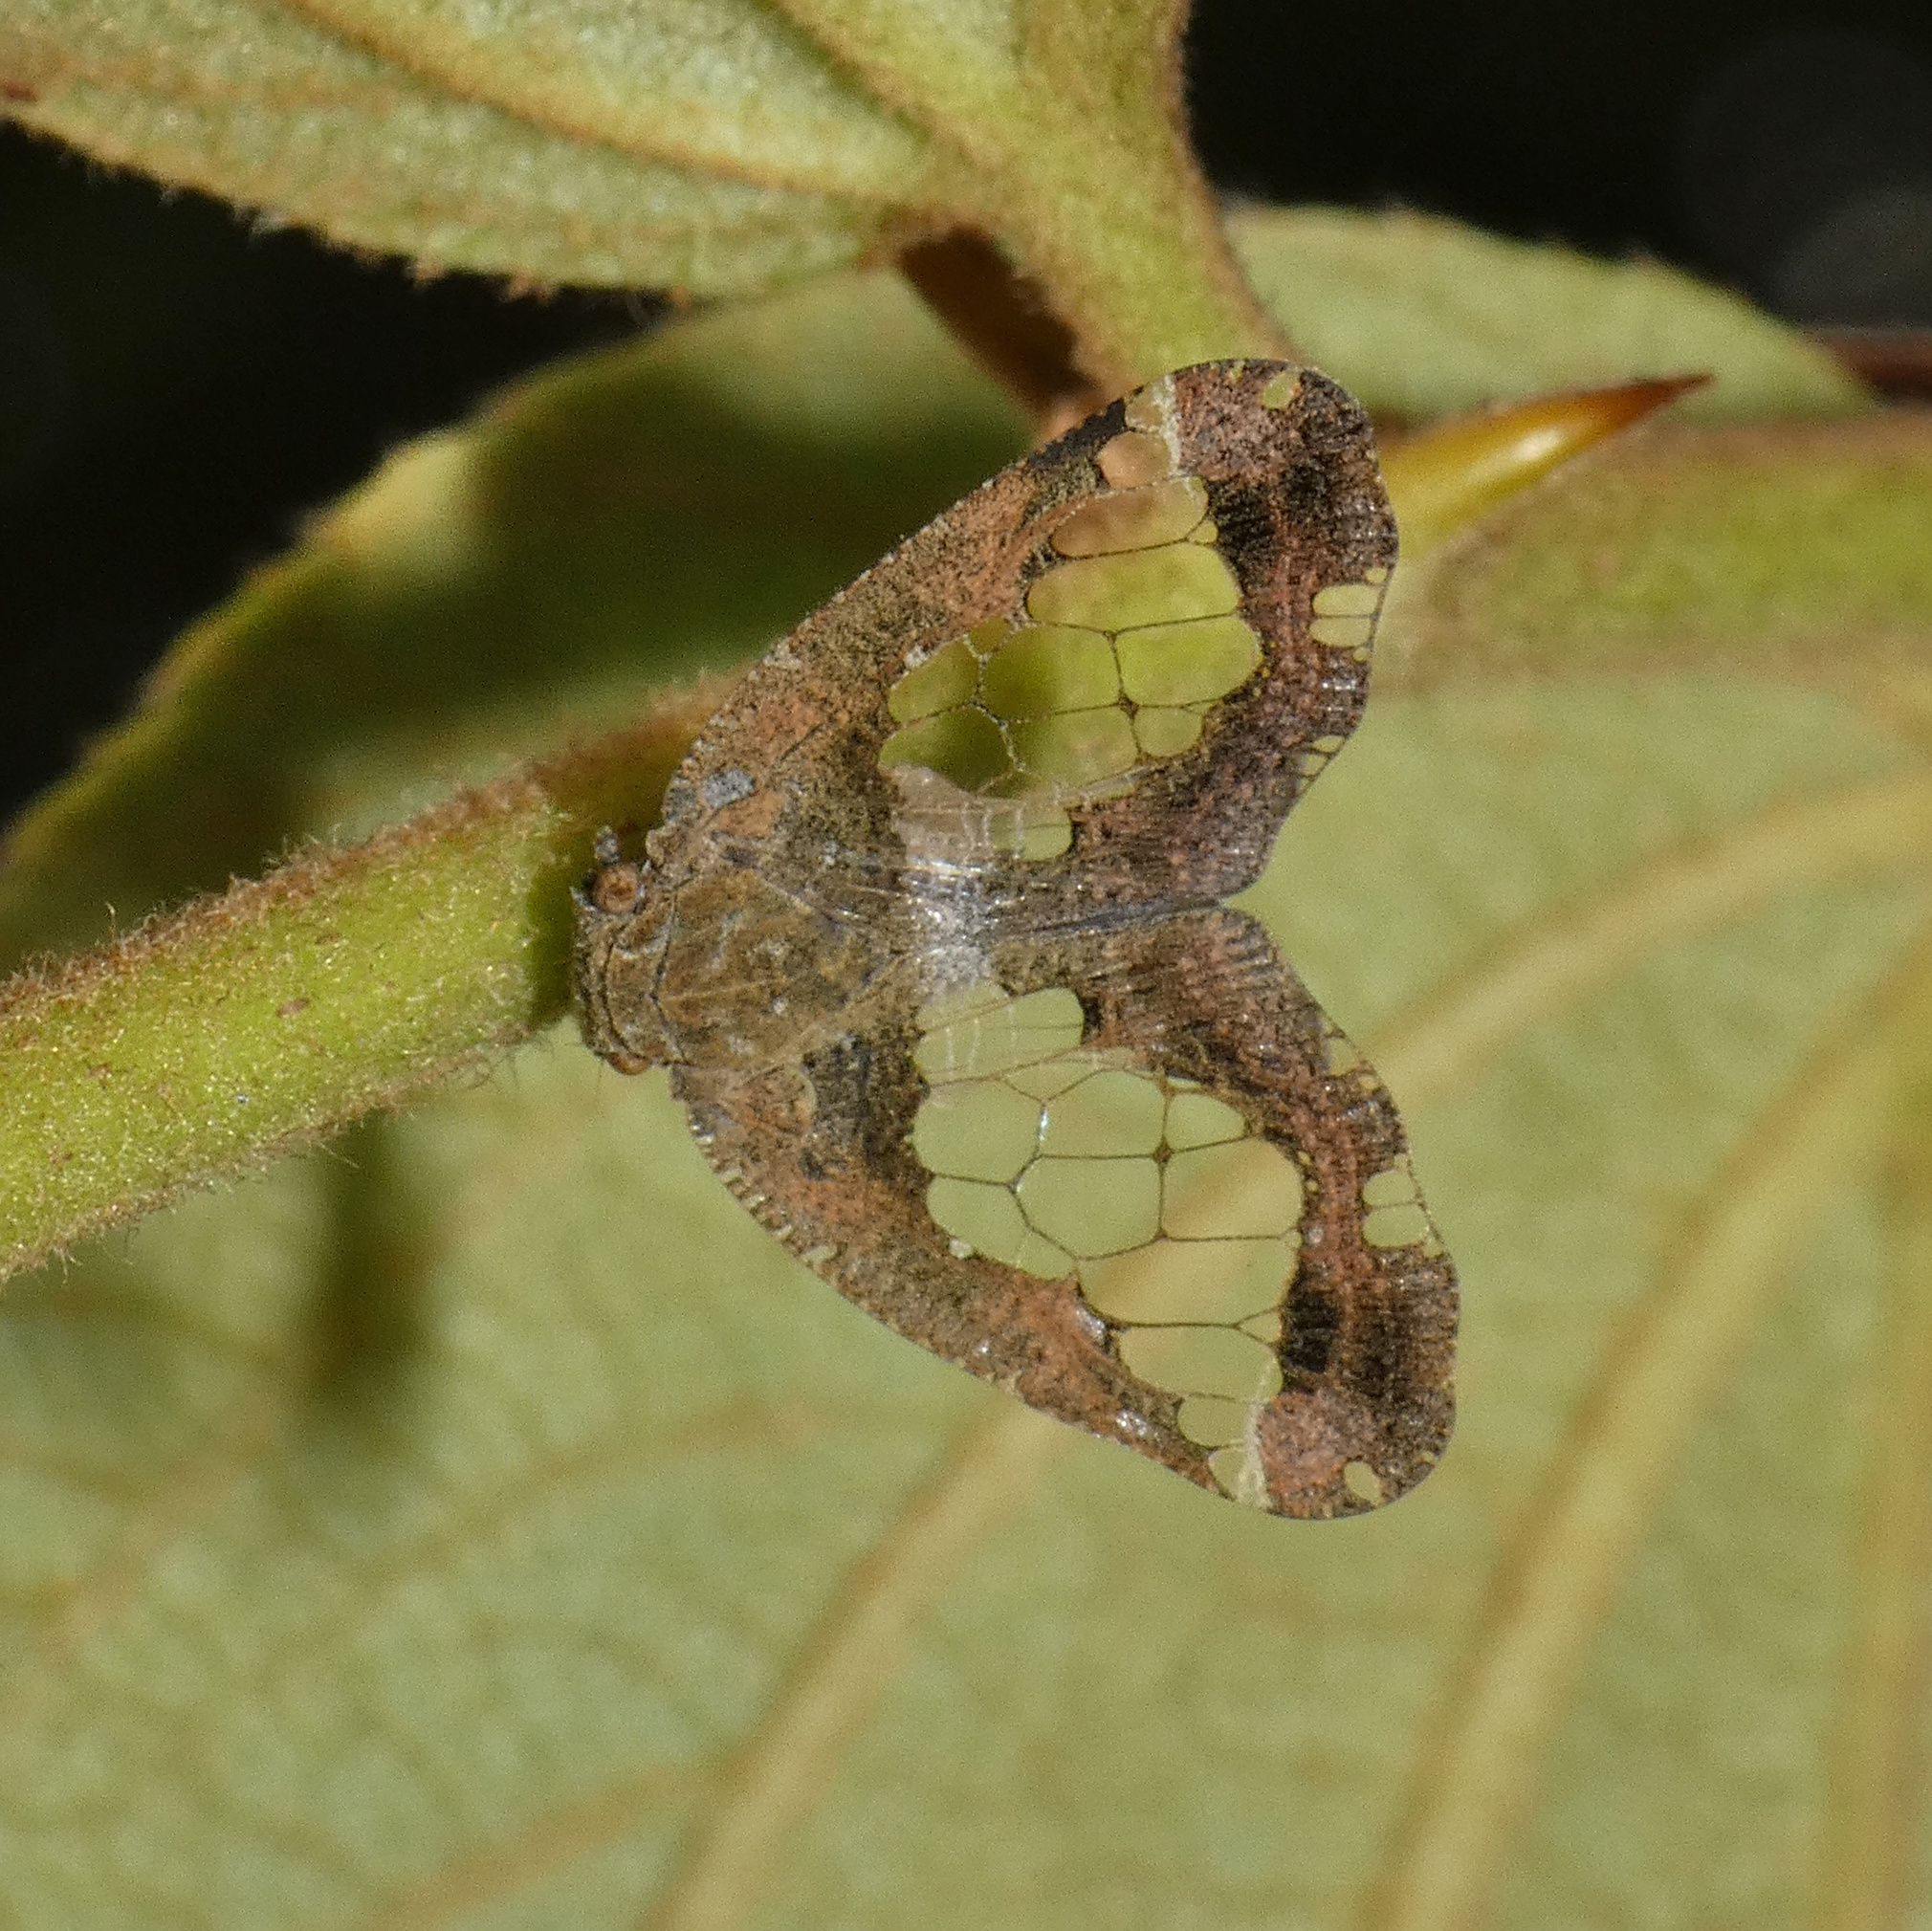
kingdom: Animalia
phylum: Arthropoda
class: Insecta
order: Hemiptera
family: Ricaniidae
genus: Lugardia
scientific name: Lugardia mimica
